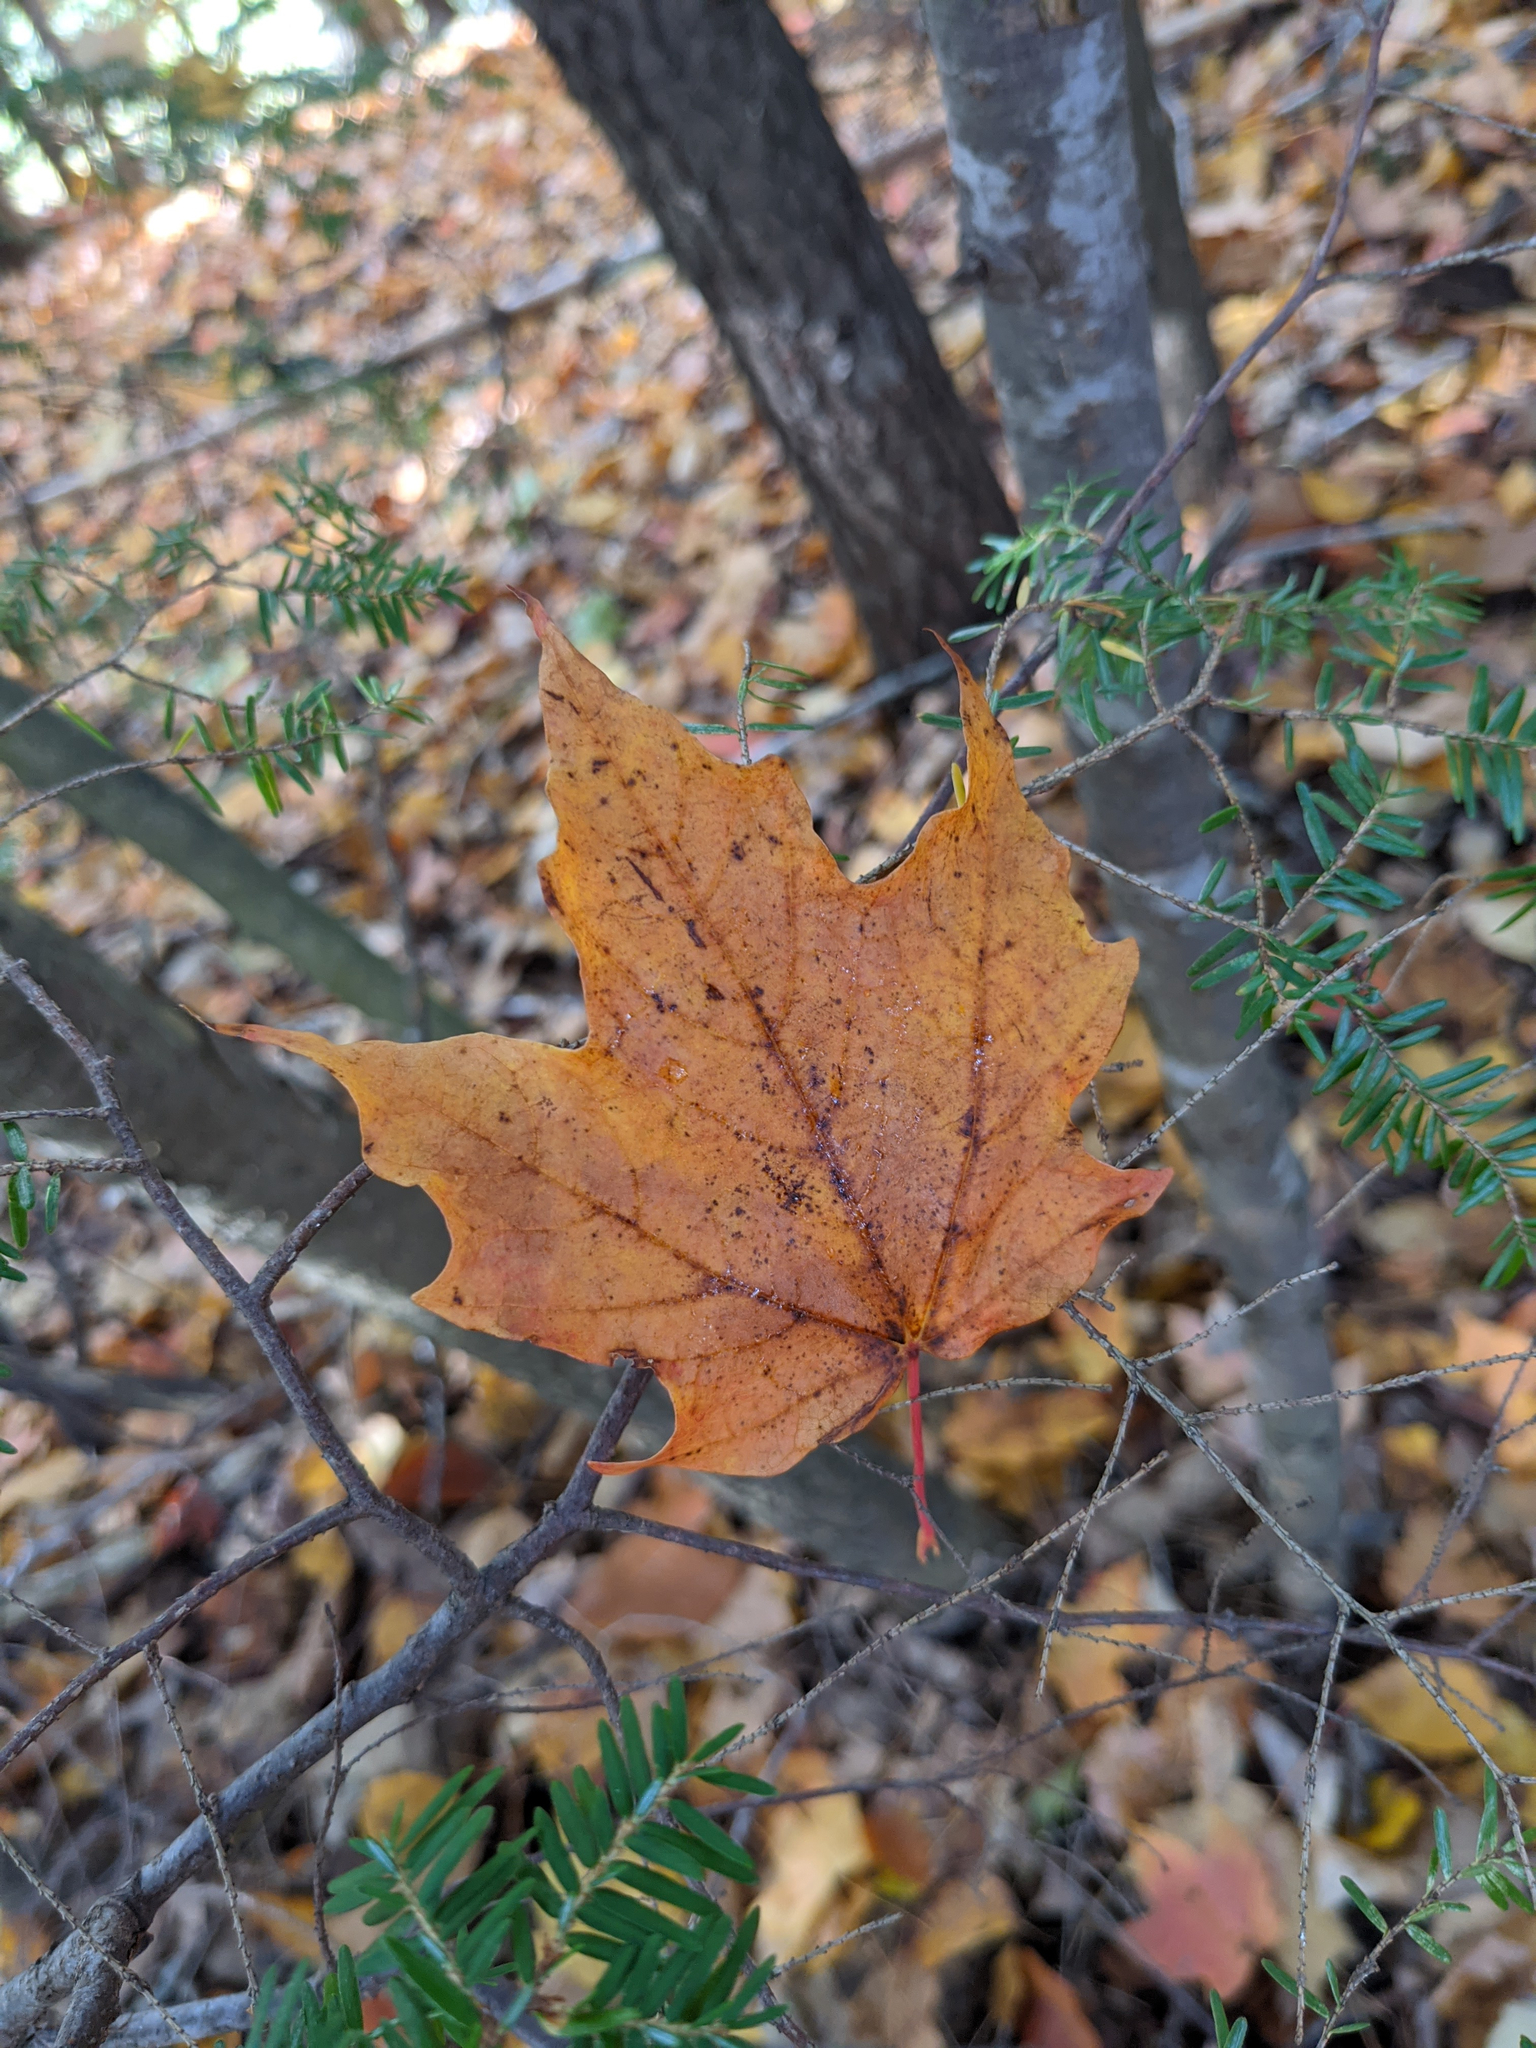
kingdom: Plantae
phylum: Tracheophyta
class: Magnoliopsida
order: Sapindales
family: Sapindaceae
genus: Acer
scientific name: Acer saccharum
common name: Sugar maple
